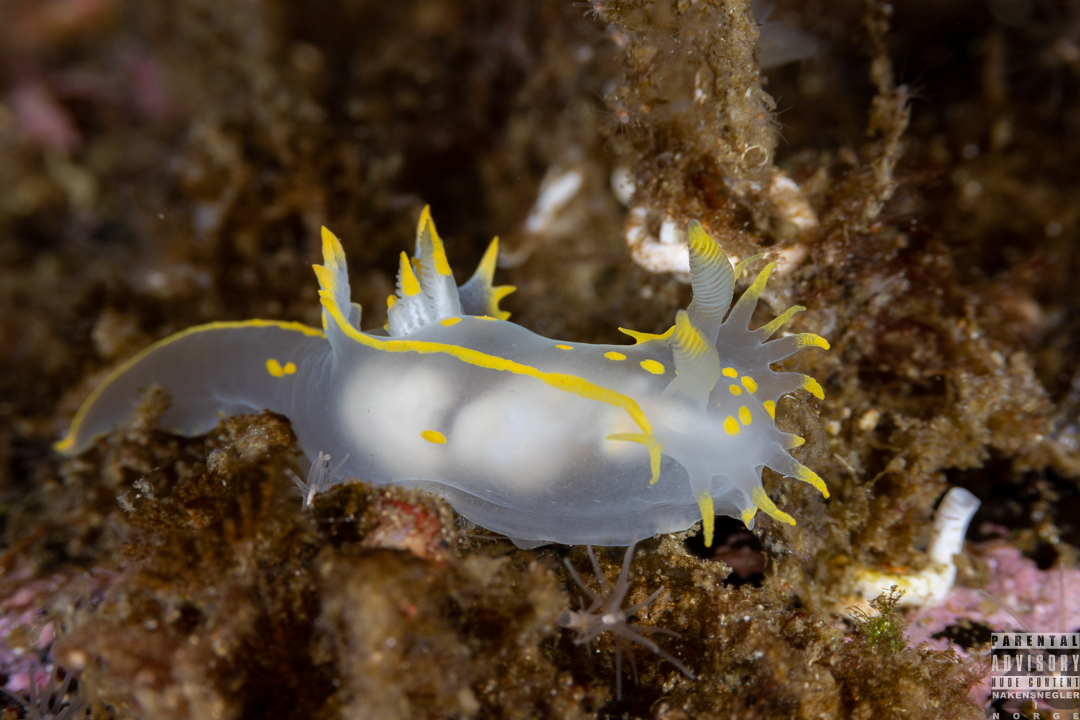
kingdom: Animalia
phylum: Mollusca
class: Gastropoda
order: Nudibranchia
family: Polyceridae
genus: Polycera
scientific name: Polycera faeroensis
